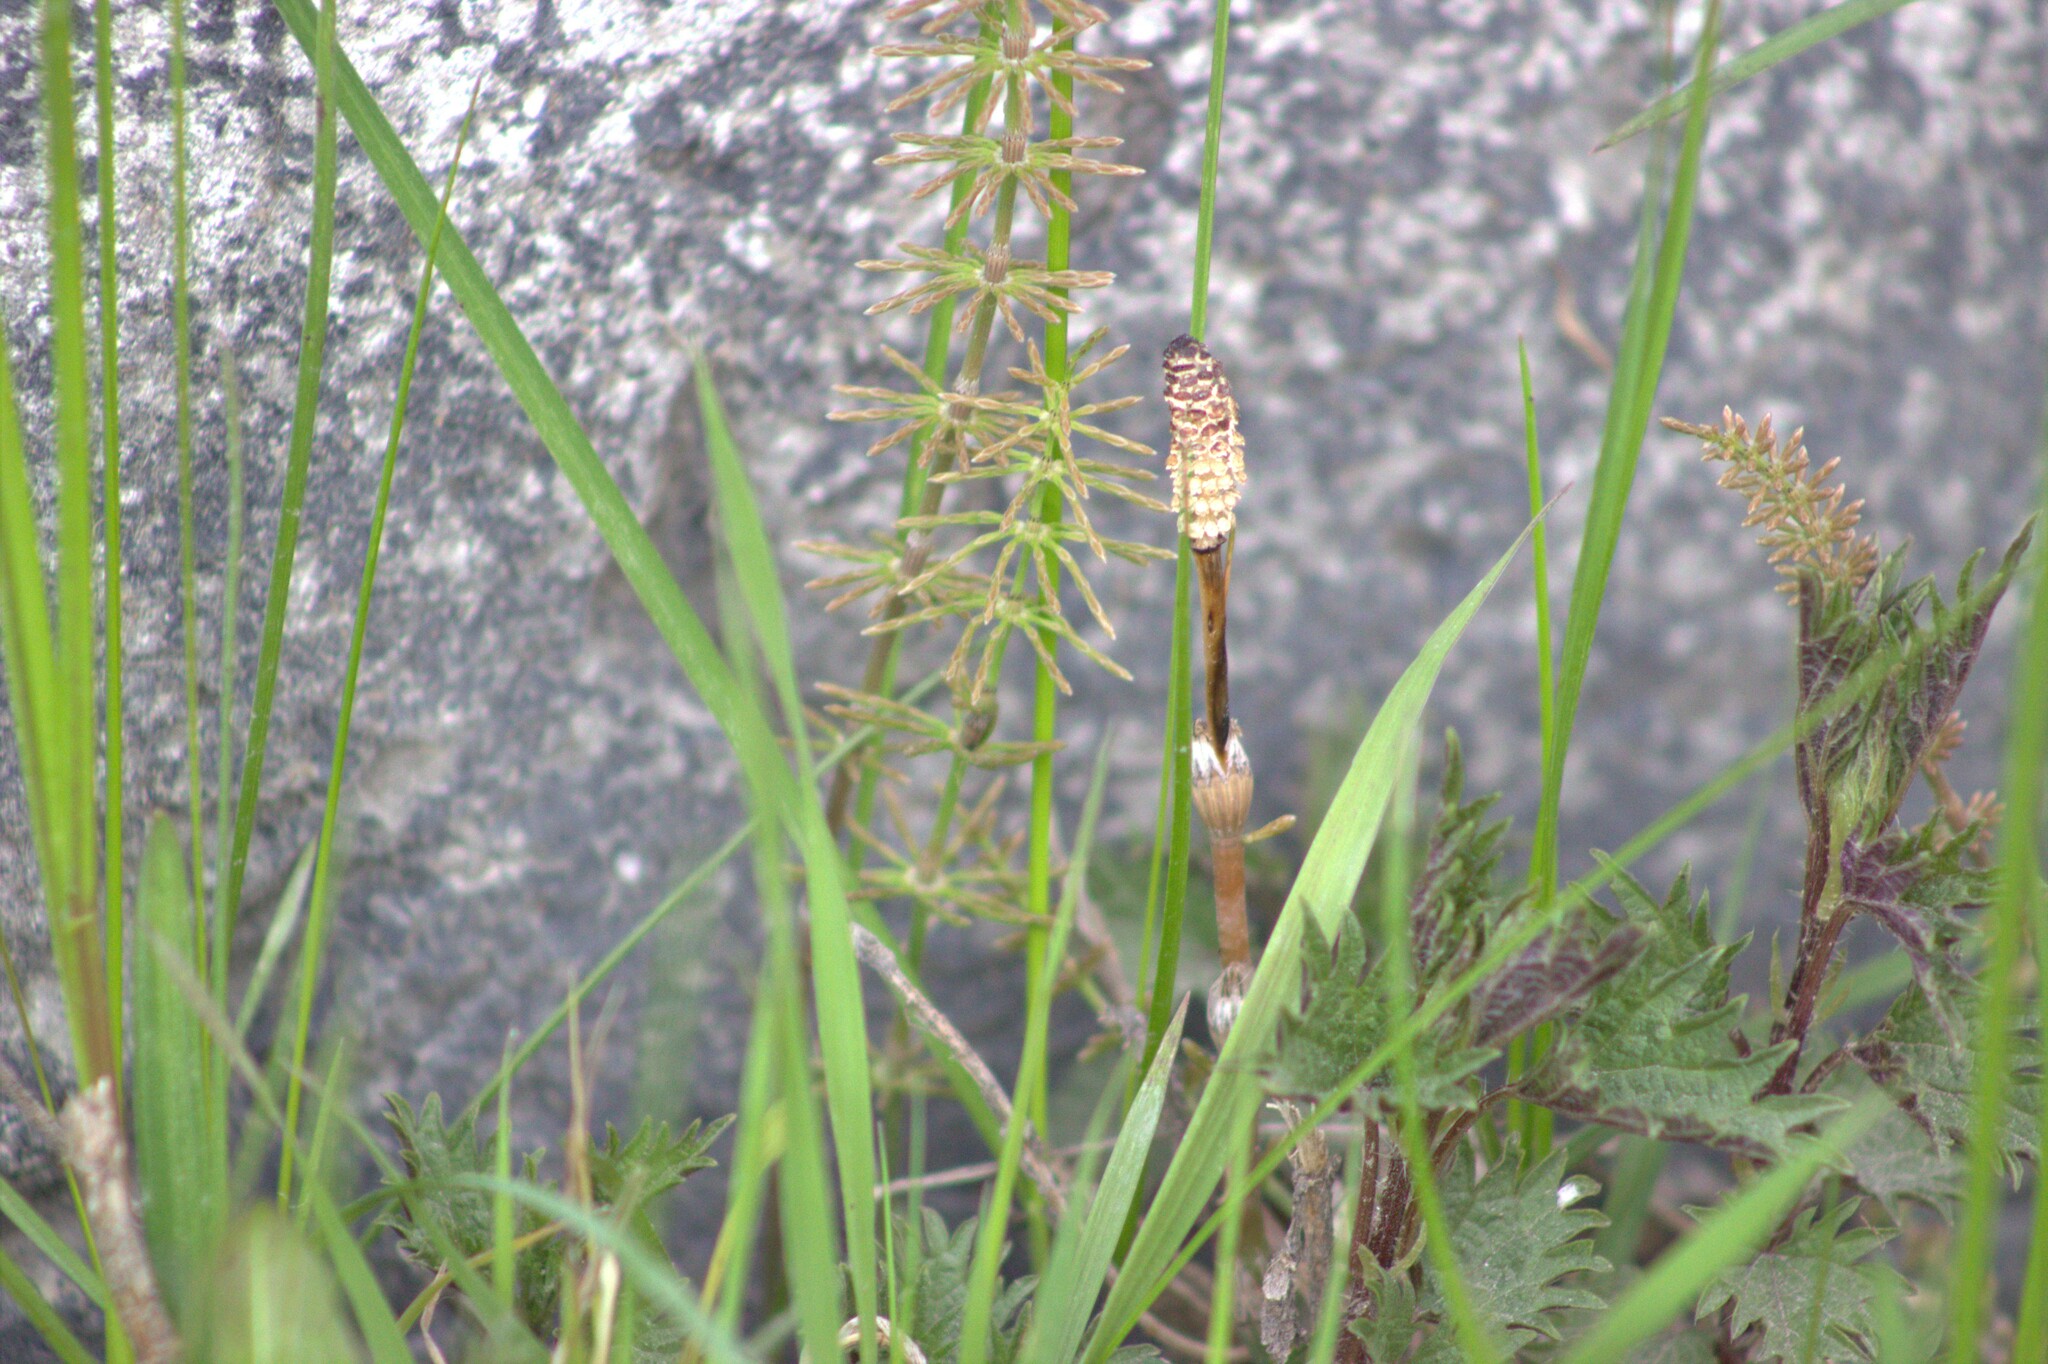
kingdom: Plantae
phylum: Tracheophyta
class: Polypodiopsida
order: Equisetales
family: Equisetaceae
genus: Equisetum
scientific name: Equisetum pratense
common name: Meadow horsetail
